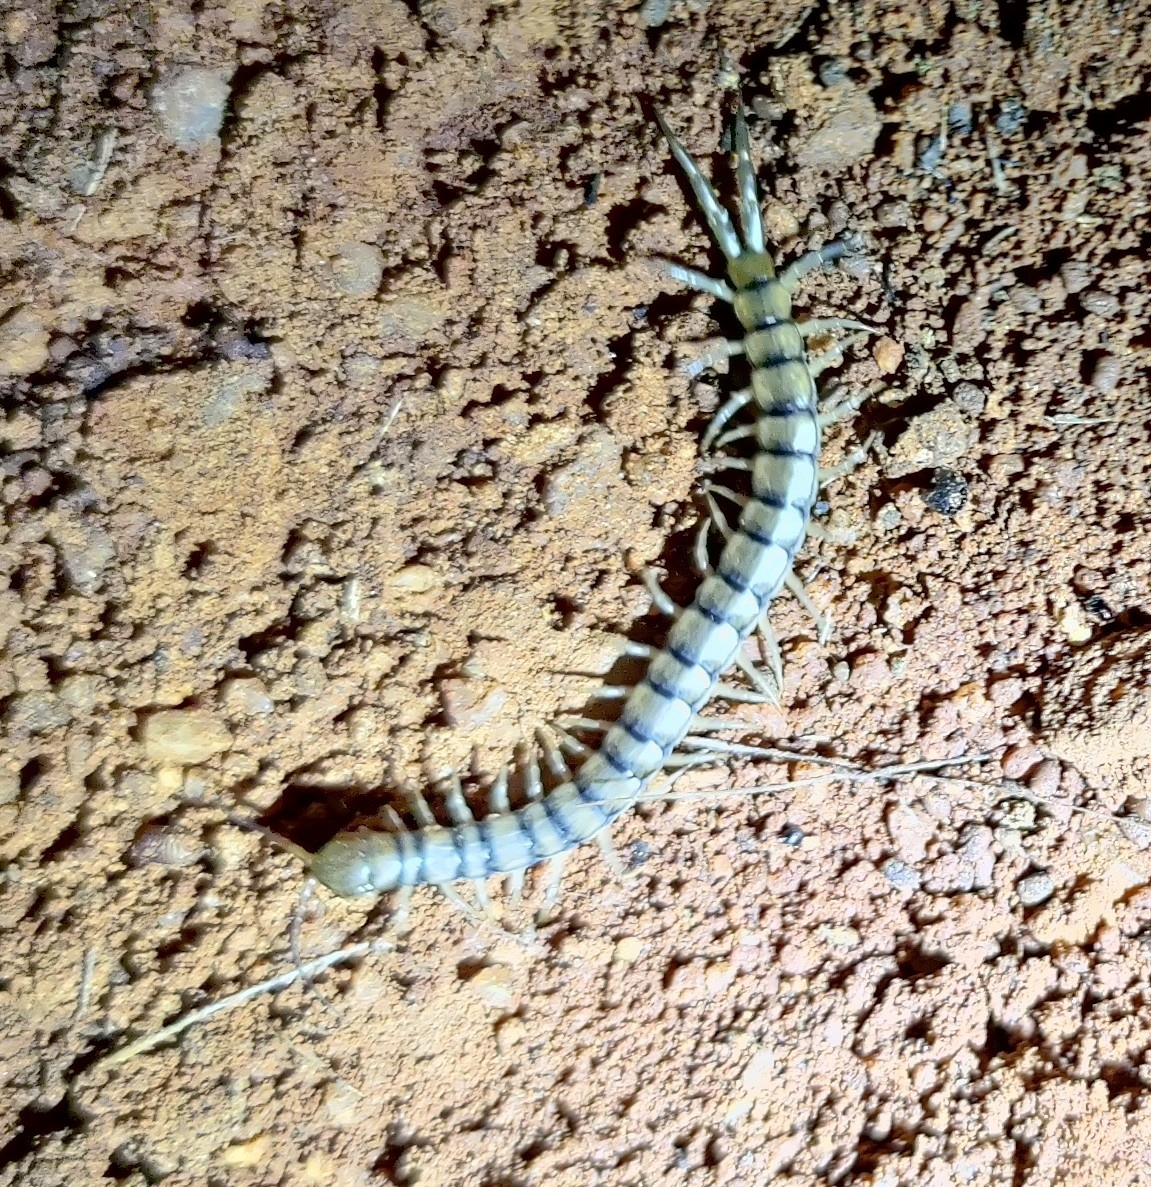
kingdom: Animalia
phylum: Arthropoda
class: Chilopoda
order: Scolopendromorpha
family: Scolopendridae
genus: Scolopendra
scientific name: Scolopendra morsitans
